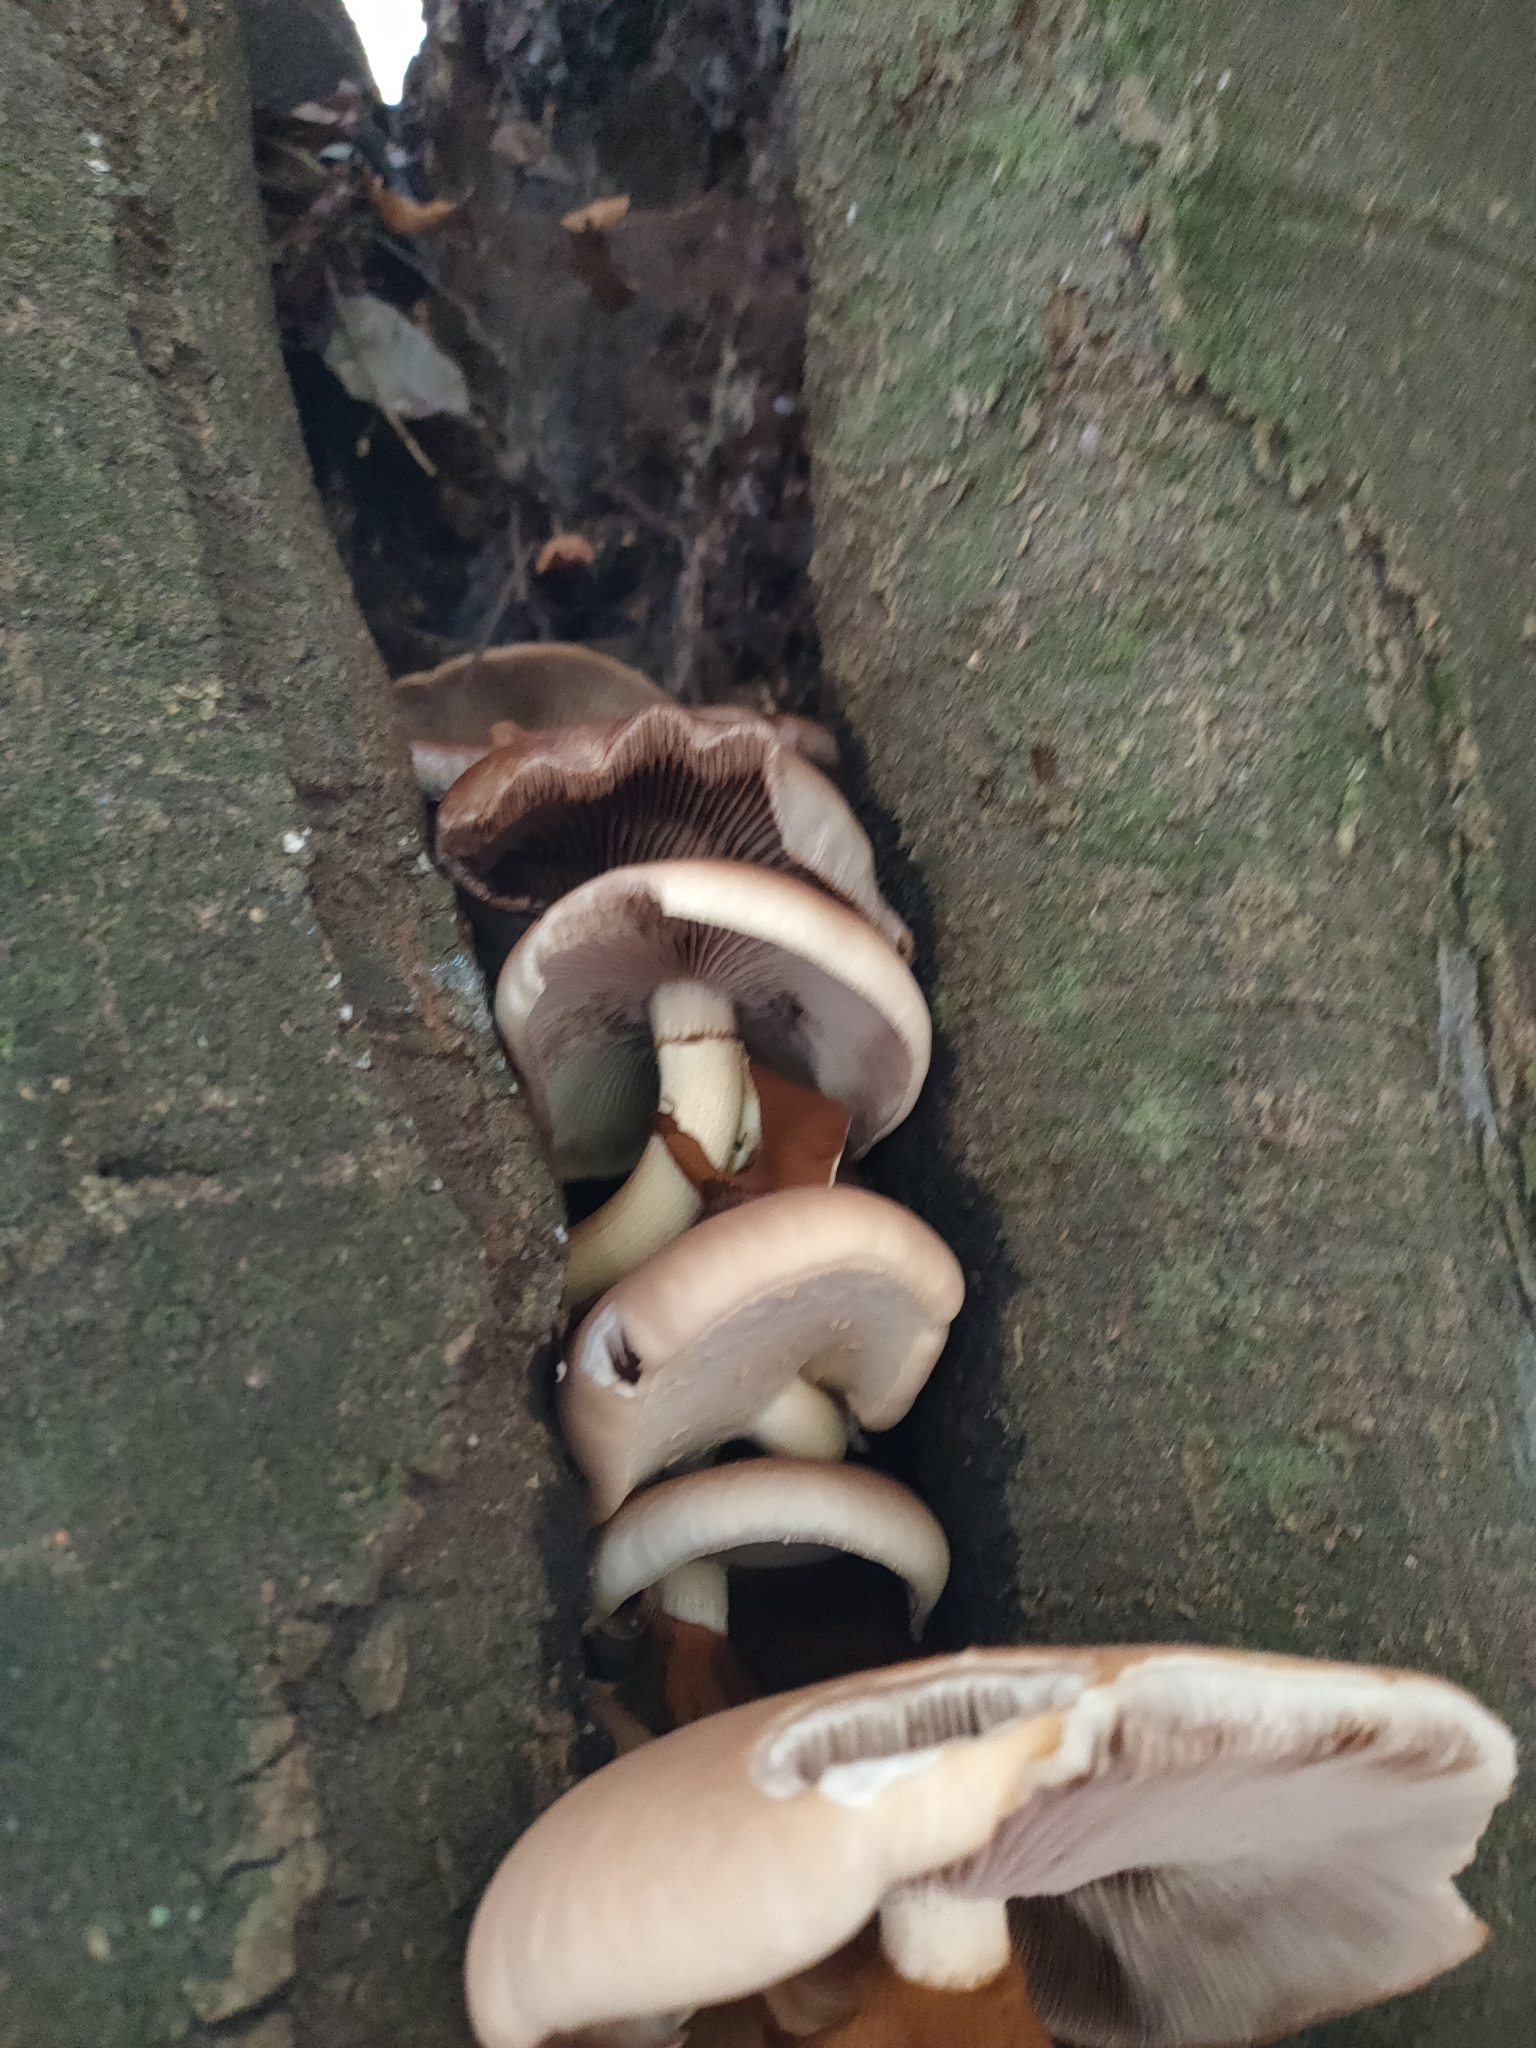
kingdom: Fungi
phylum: Basidiomycota
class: Agaricomycetes
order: Agaricales
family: Tubariaceae
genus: Cyclocybe
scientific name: Cyclocybe parasitica
